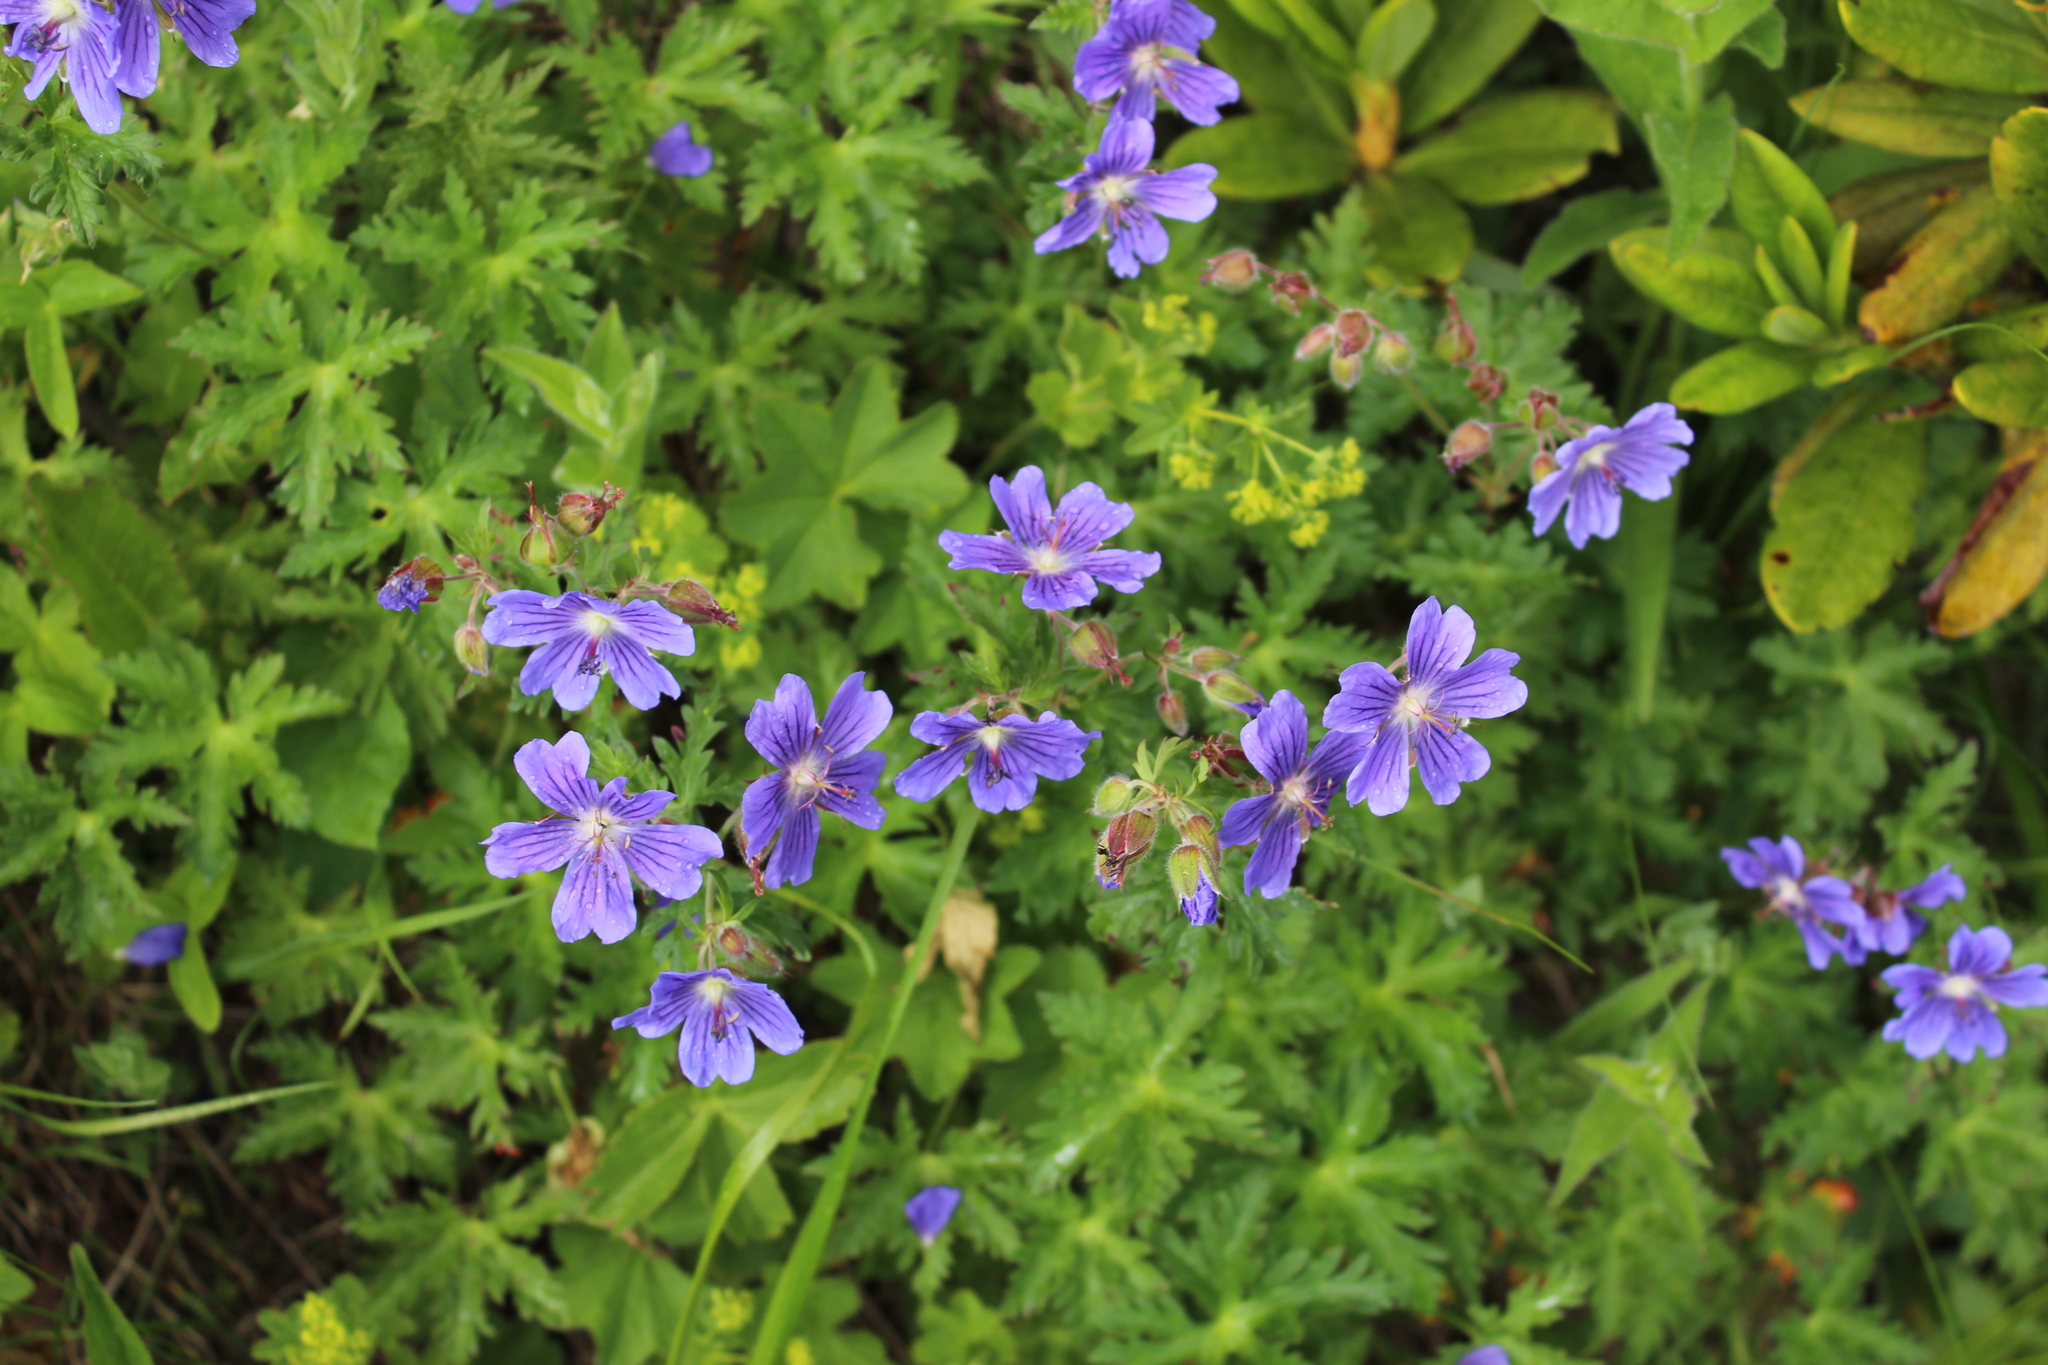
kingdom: Plantae
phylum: Tracheophyta
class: Magnoliopsida
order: Geraniales
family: Geraniaceae
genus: Geranium
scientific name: Geranium gymnocaulon
